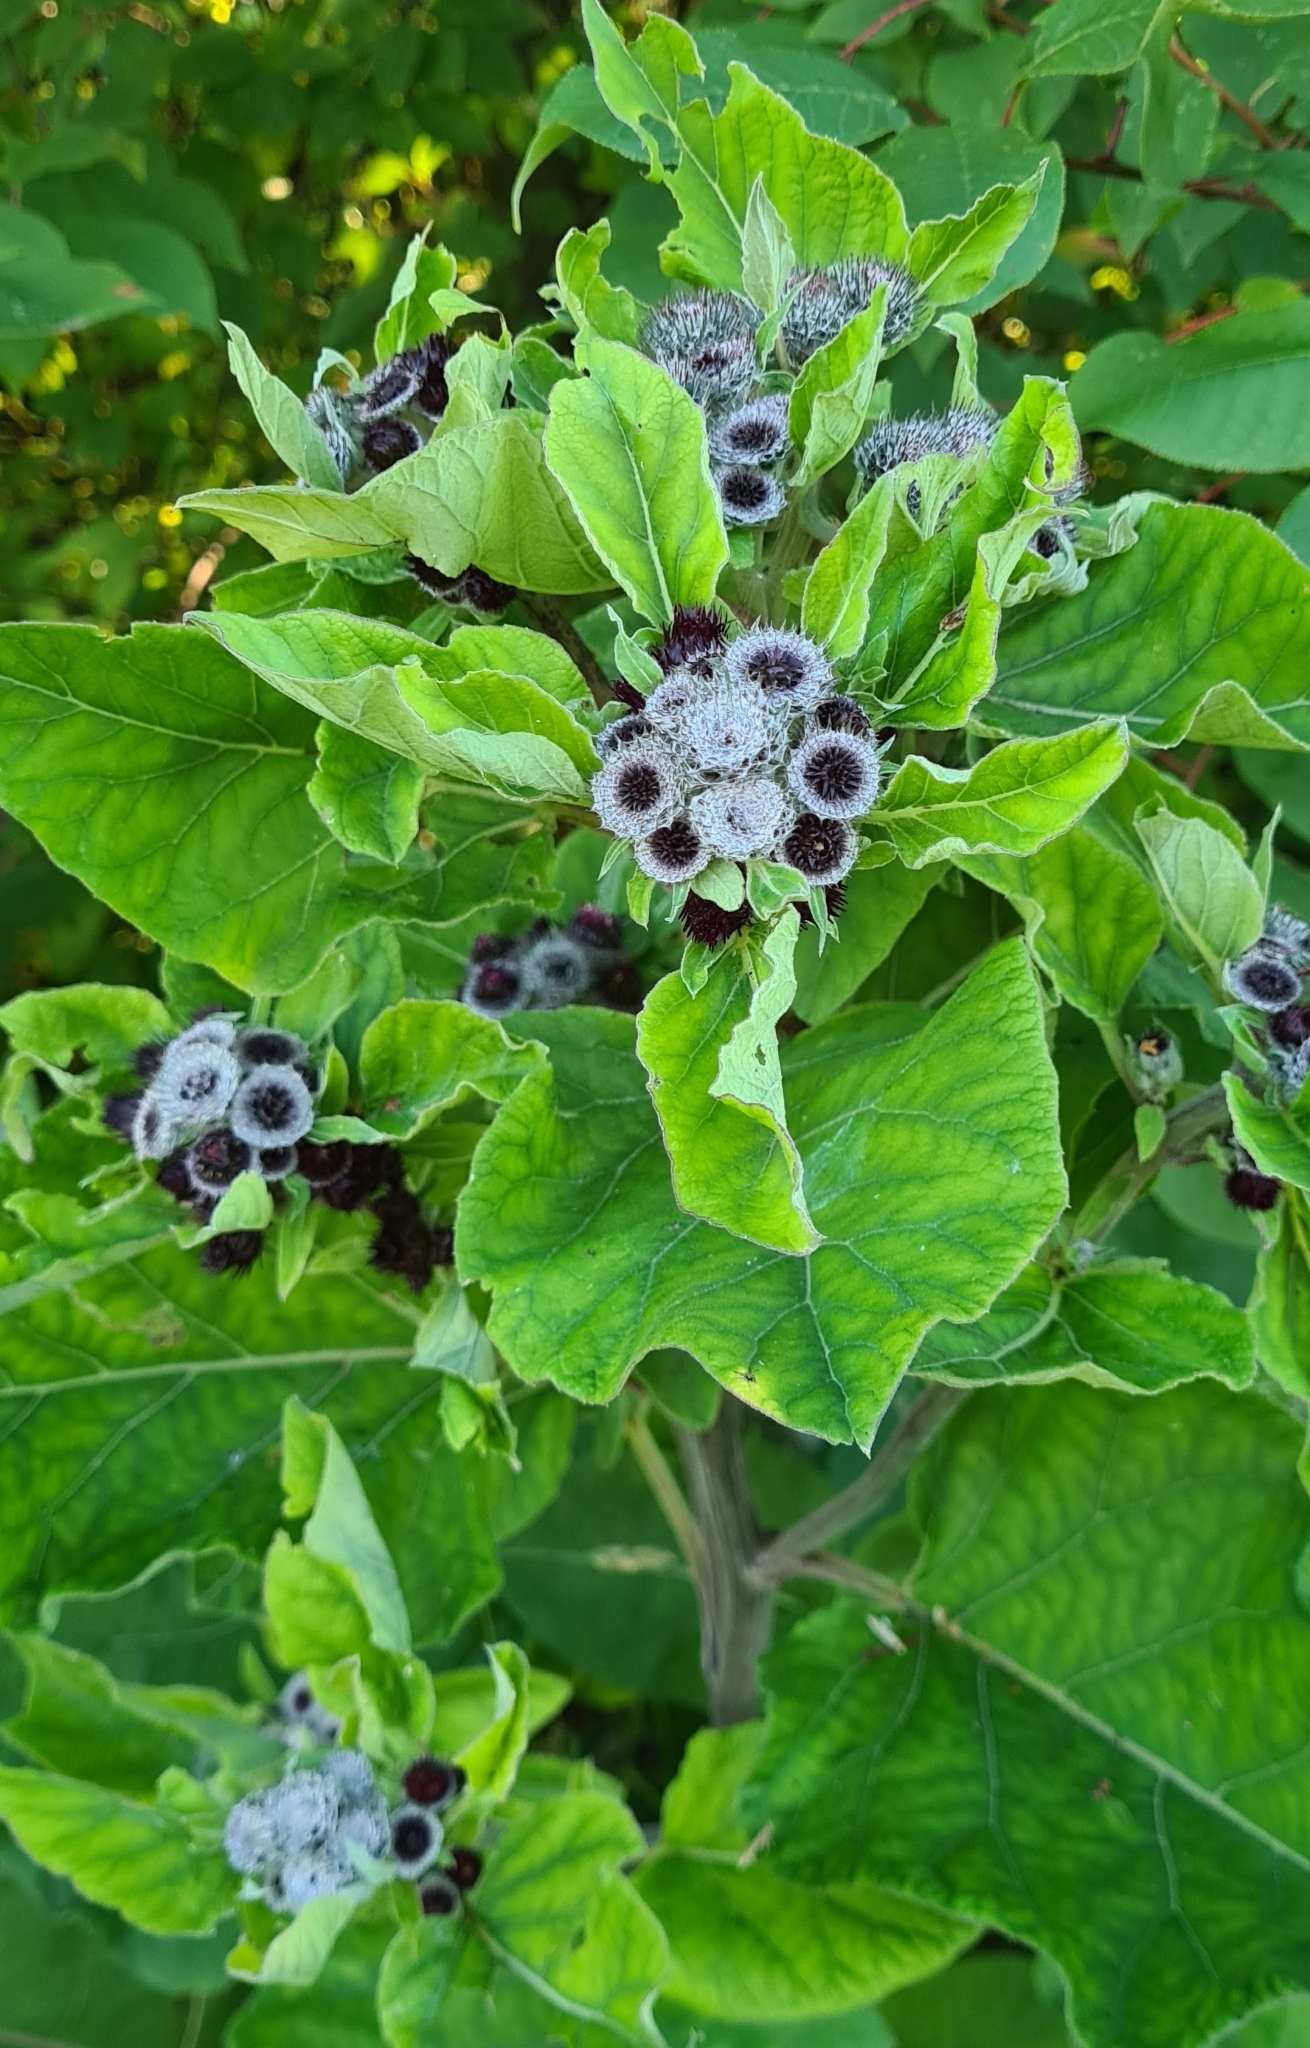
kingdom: Plantae
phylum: Tracheophyta
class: Magnoliopsida
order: Asterales
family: Asteraceae
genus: Arctium
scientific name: Arctium tomentosum
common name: Woolly burdock
